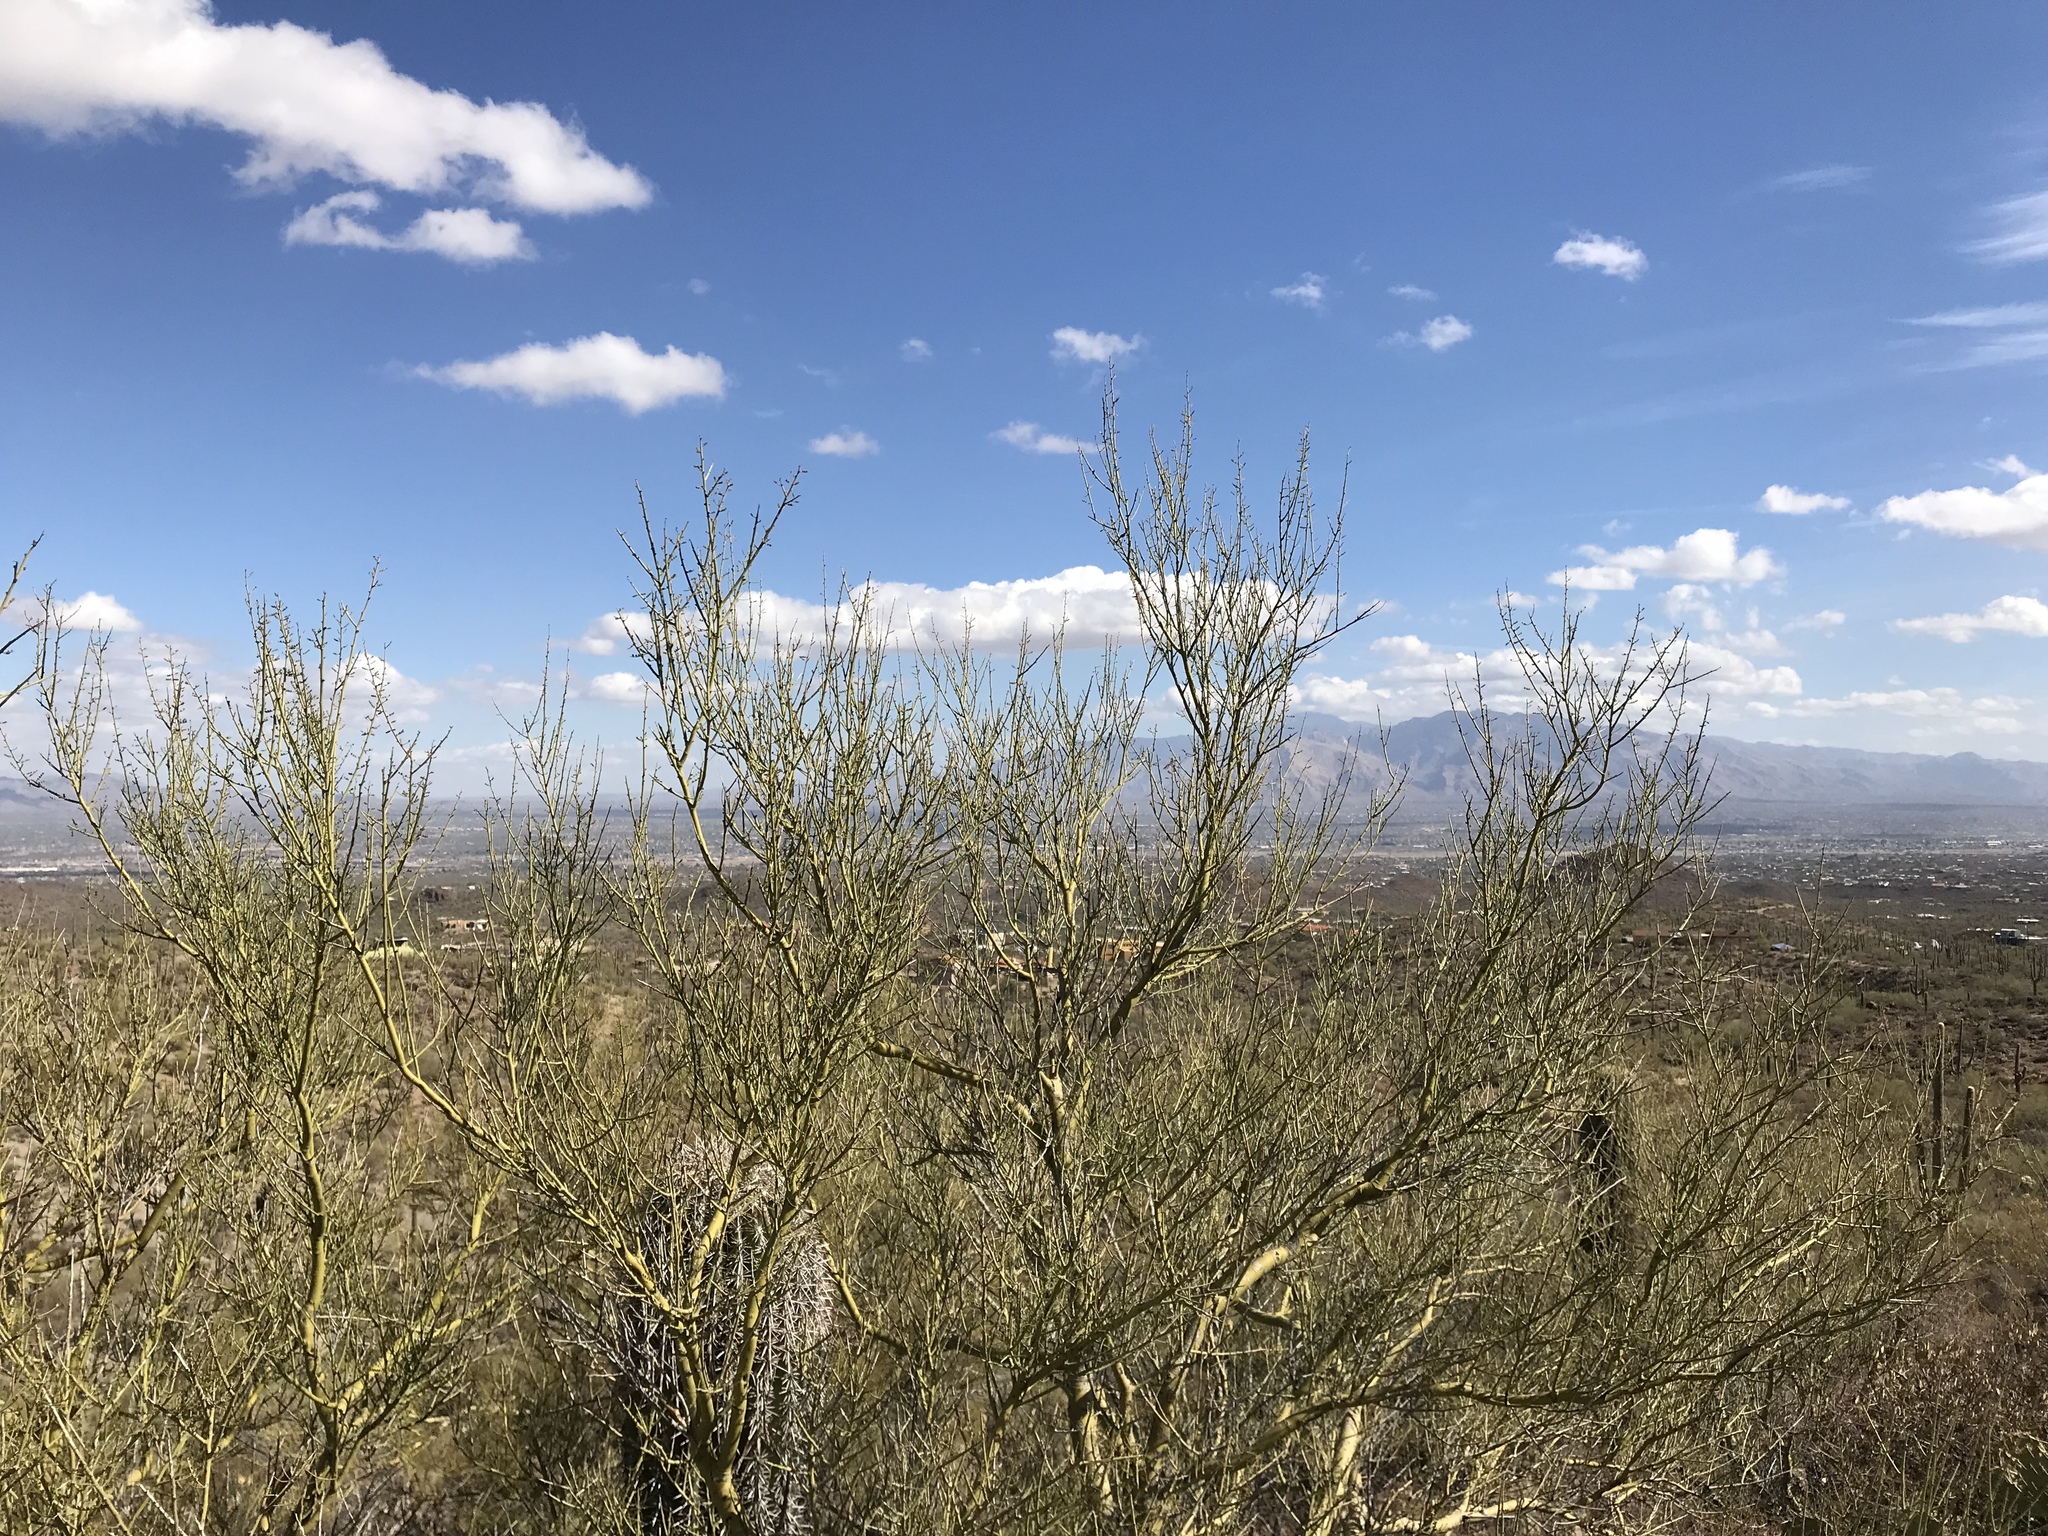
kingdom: Plantae
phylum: Tracheophyta
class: Magnoliopsida
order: Fabales
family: Fabaceae
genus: Parkinsonia
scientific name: Parkinsonia microphylla
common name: Yellow paloverde
